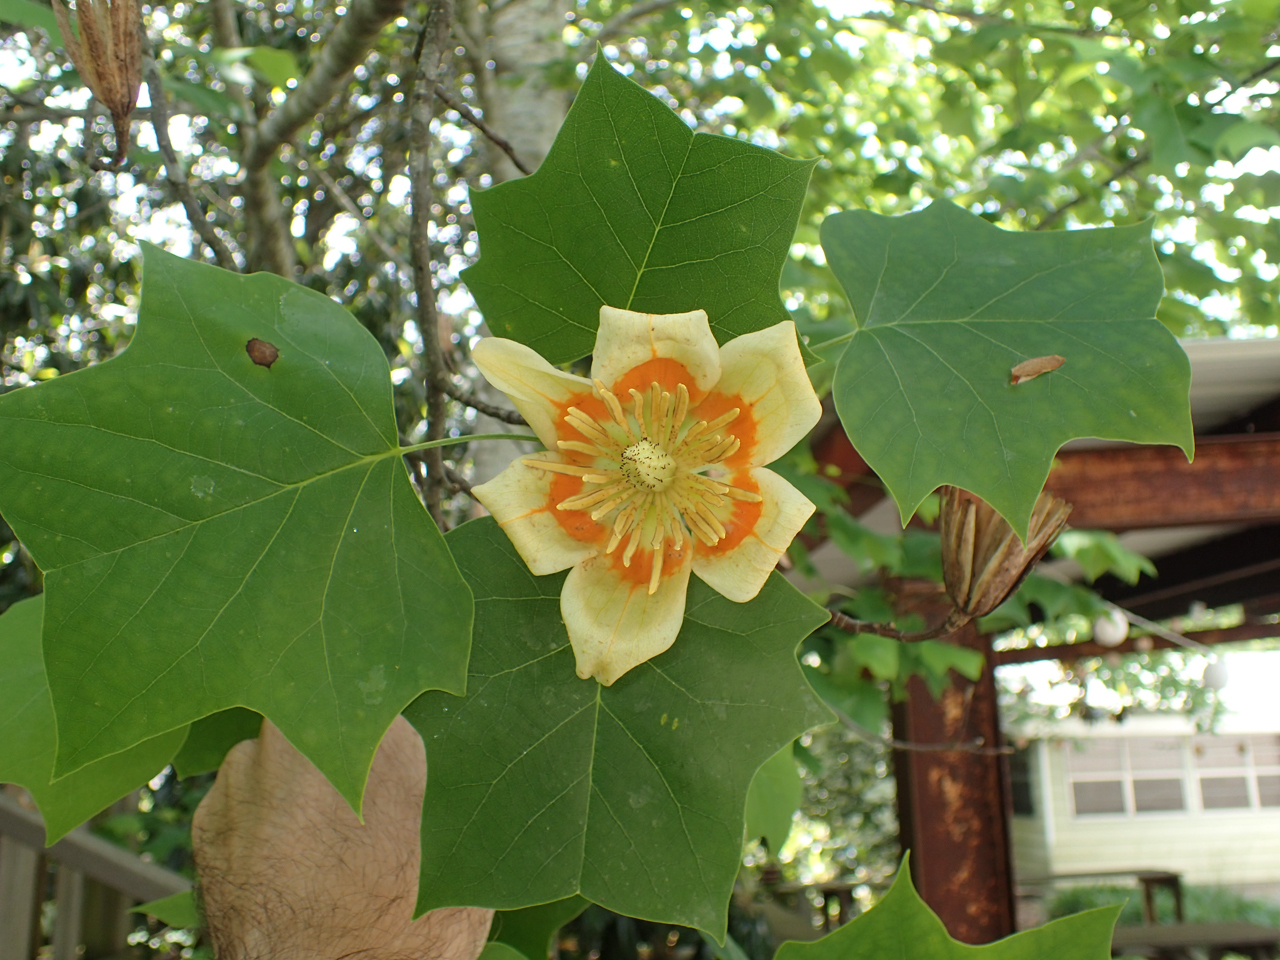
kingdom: Plantae
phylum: Tracheophyta
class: Magnoliopsida
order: Magnoliales
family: Magnoliaceae
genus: Liriodendron
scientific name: Liriodendron tulipifera
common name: Tulip tree
